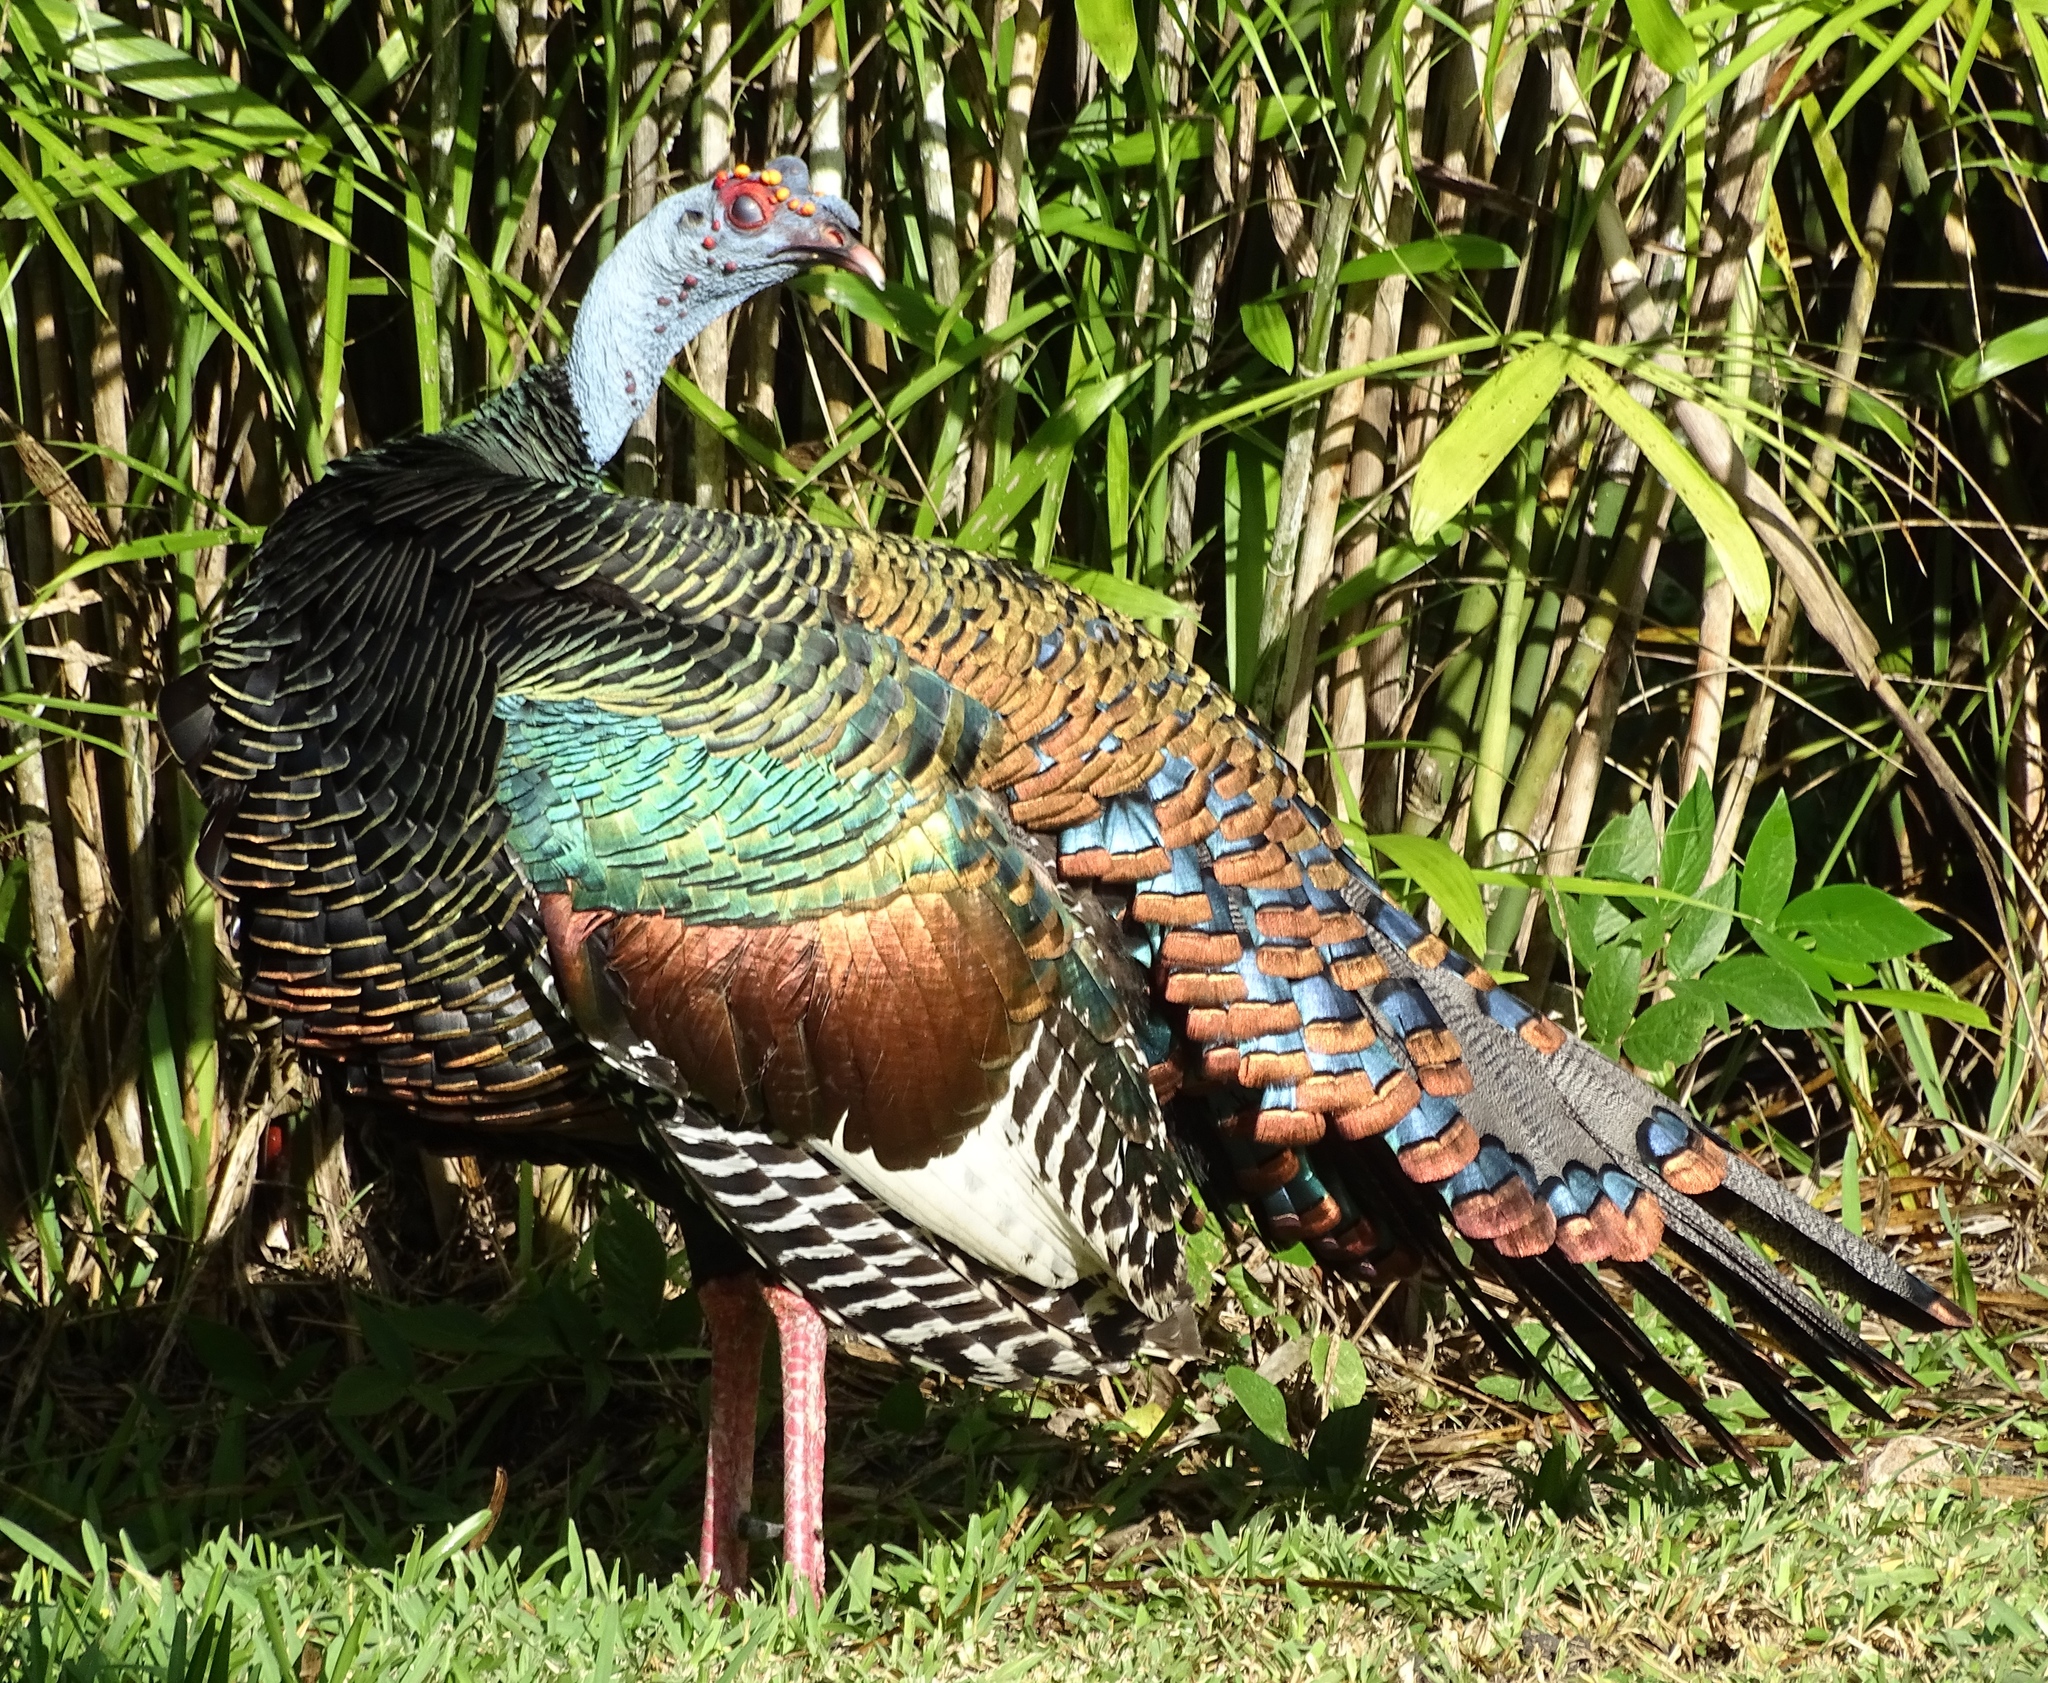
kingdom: Animalia
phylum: Chordata
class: Aves
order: Galliformes
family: Phasianidae
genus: Meleagris
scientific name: Meleagris ocellata
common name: Ocellated turkey
